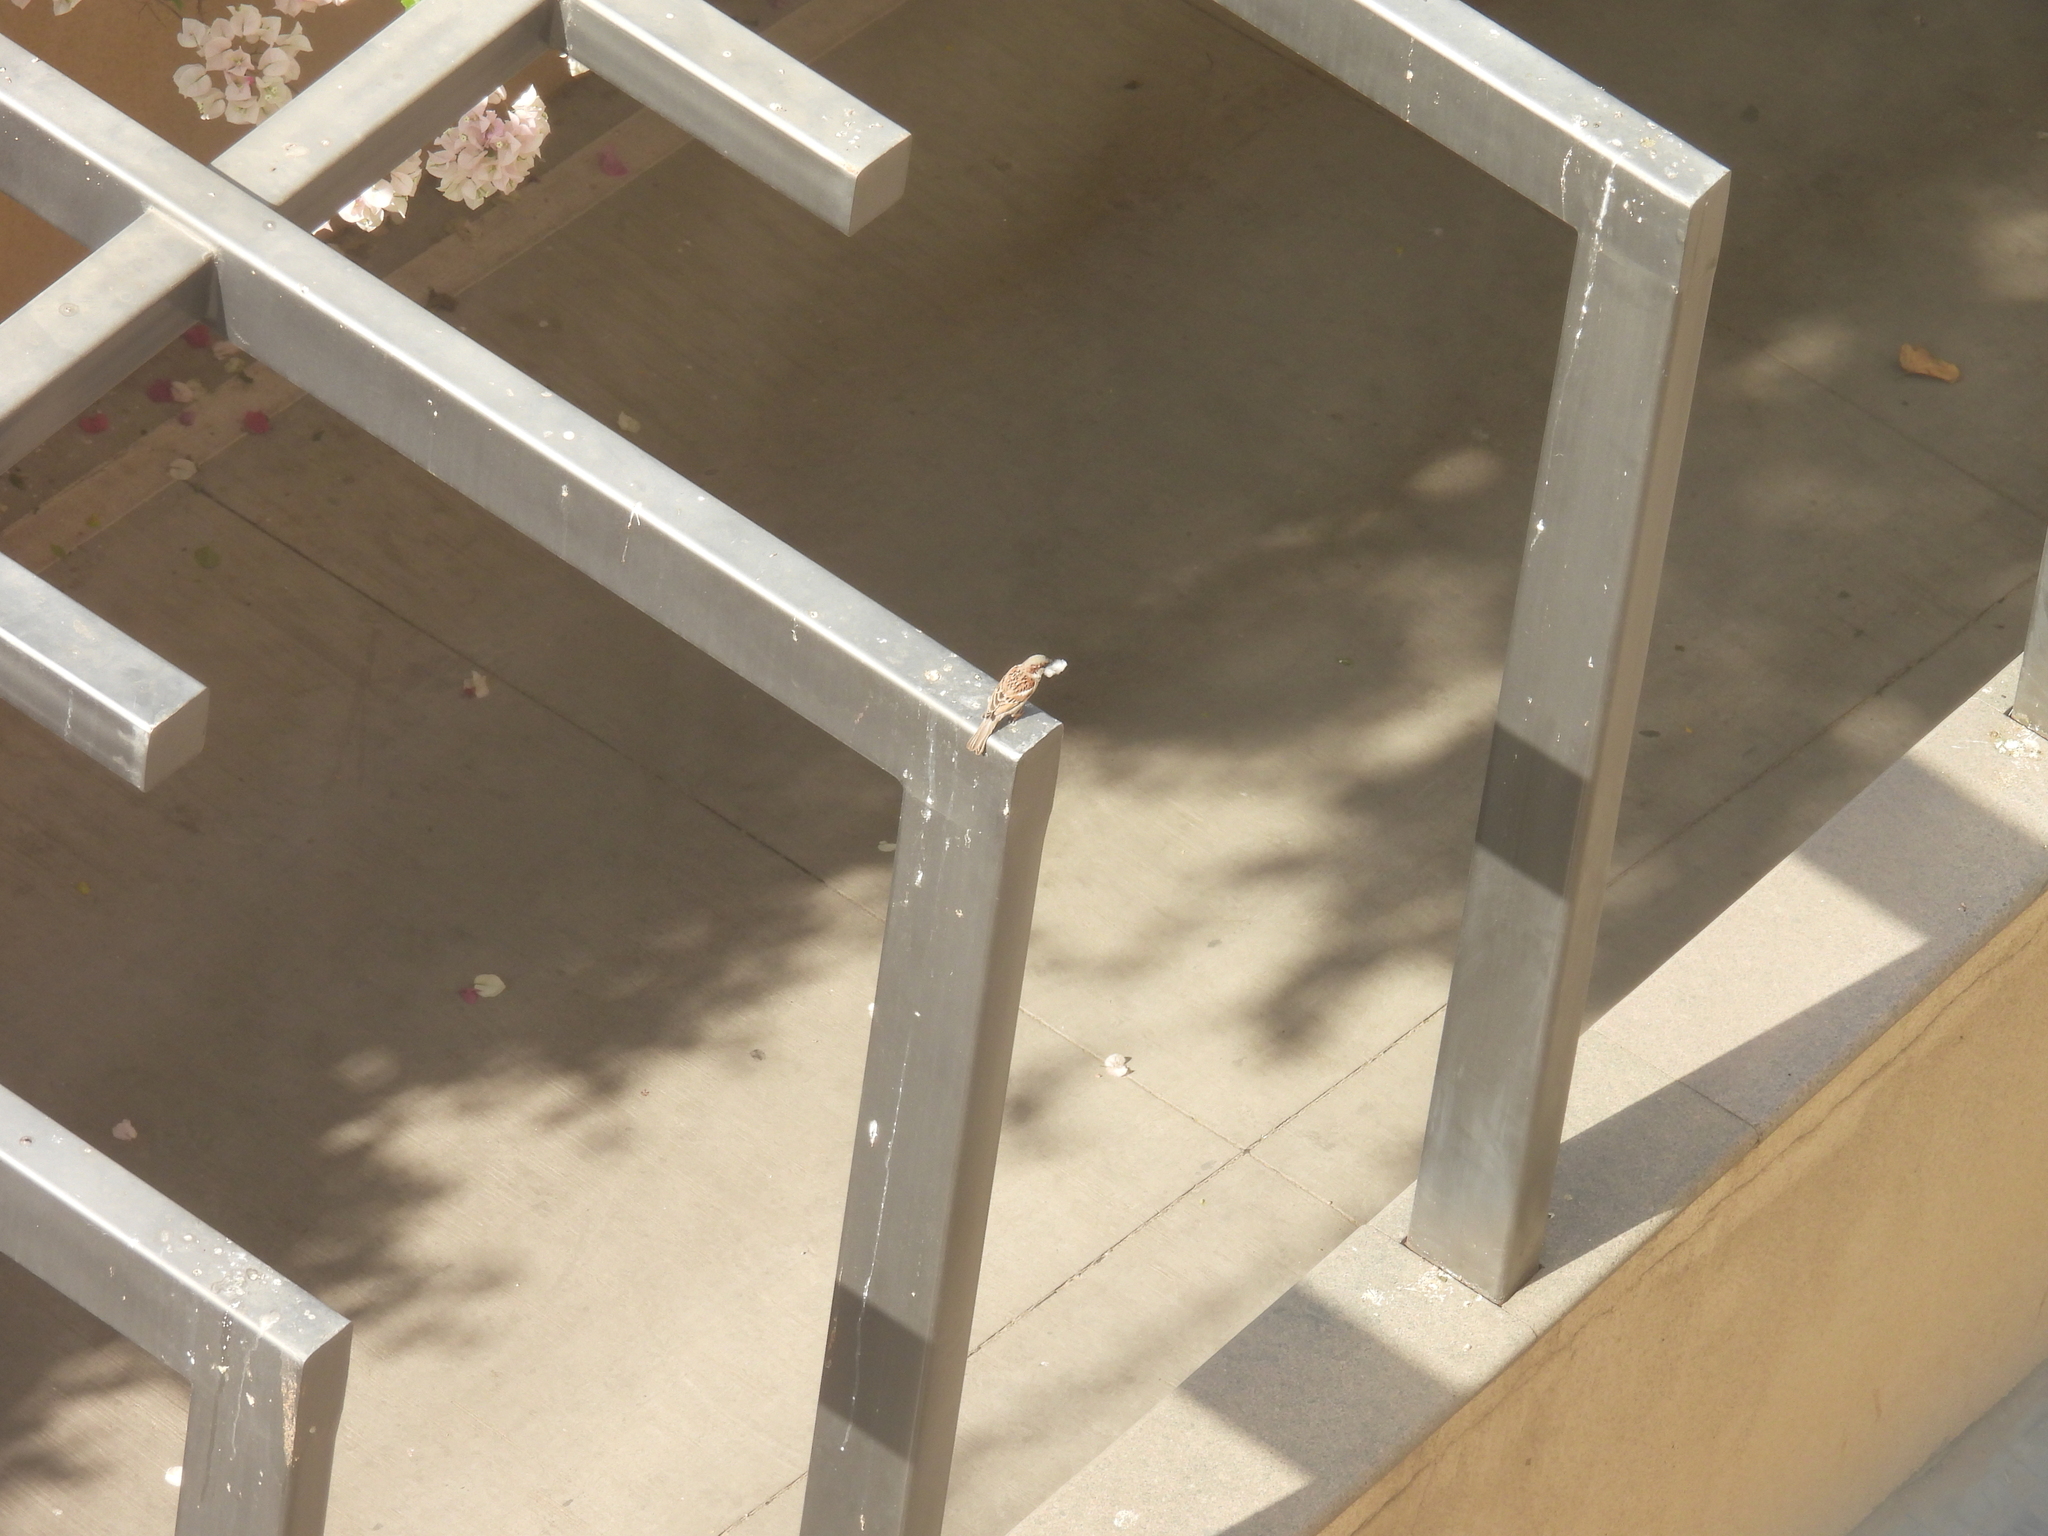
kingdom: Animalia
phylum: Chordata
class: Aves
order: Passeriformes
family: Passeridae
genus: Passer
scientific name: Passer domesticus
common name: House sparrow
